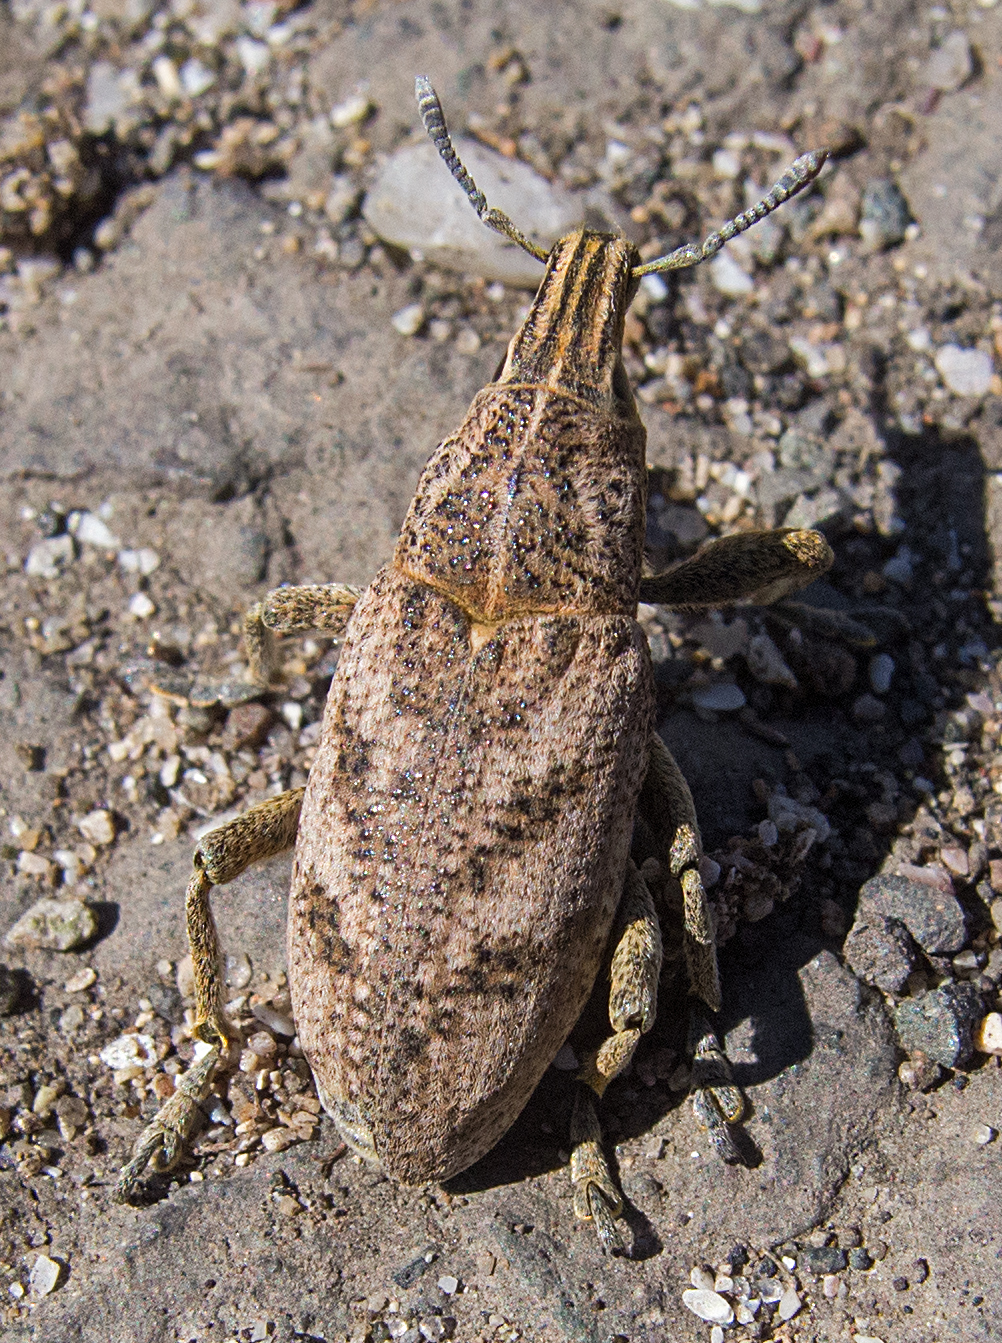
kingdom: Animalia
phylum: Arthropoda
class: Insecta
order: Coleoptera
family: Curculionidae
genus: Cleonis
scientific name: Cleonis pigra
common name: Large thistle weevil
